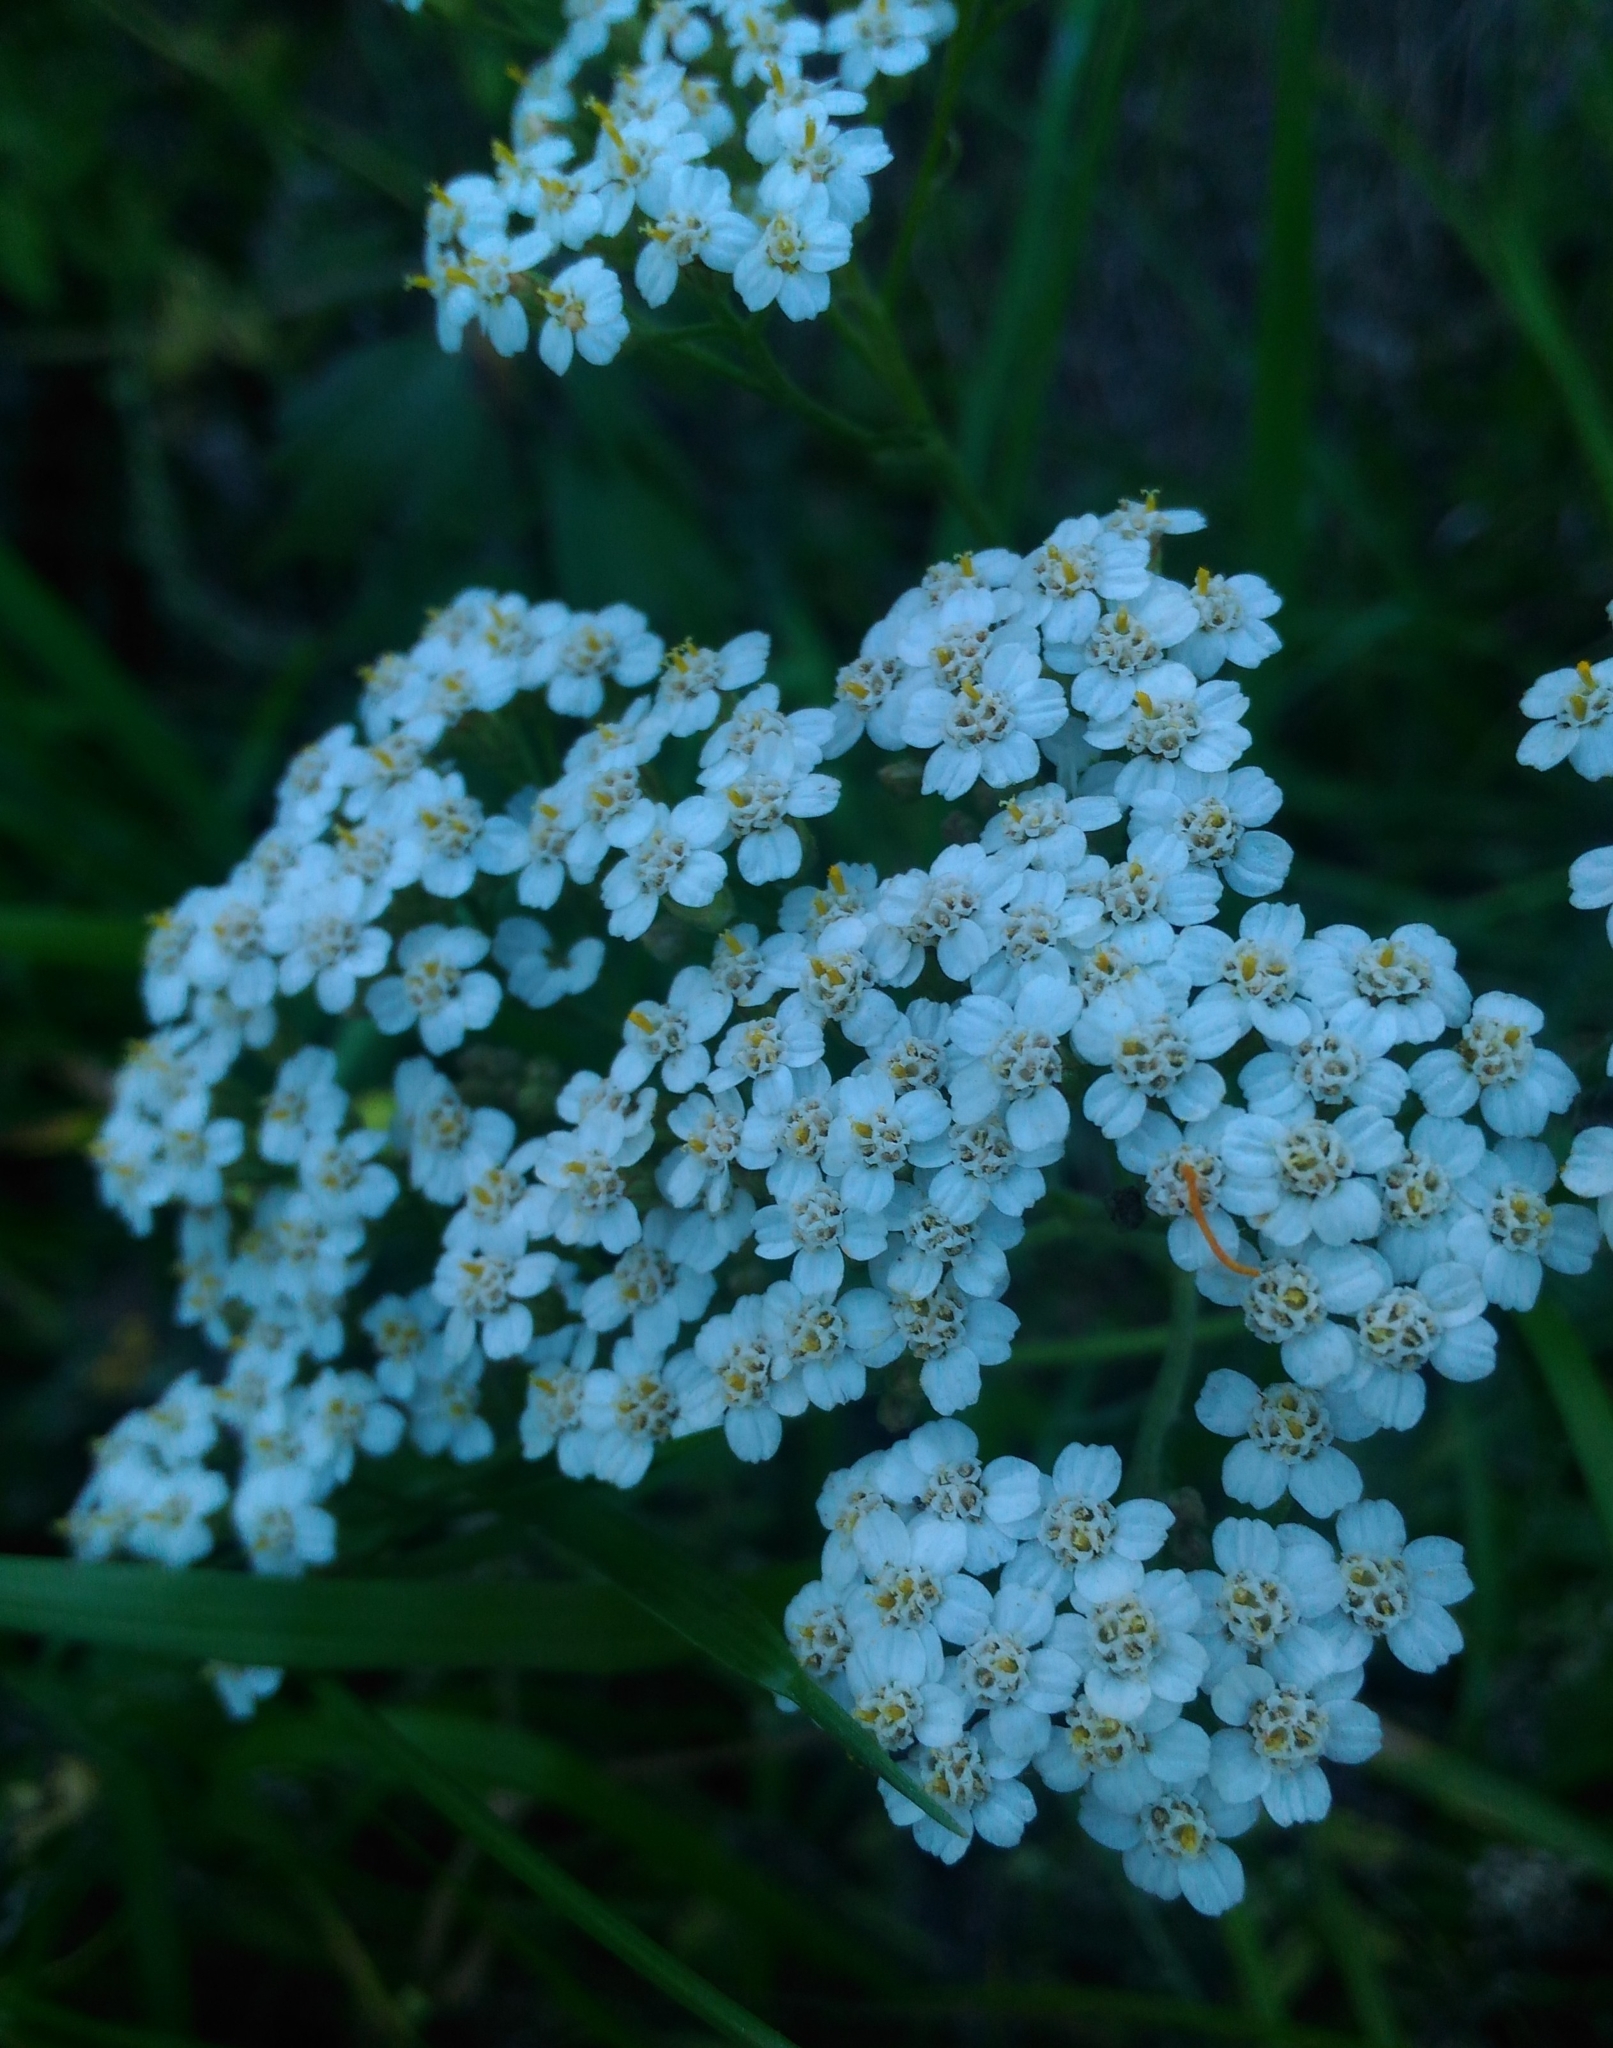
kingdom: Plantae
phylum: Tracheophyta
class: Magnoliopsida
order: Asterales
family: Asteraceae
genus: Achillea
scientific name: Achillea millefolium
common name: Yarrow
